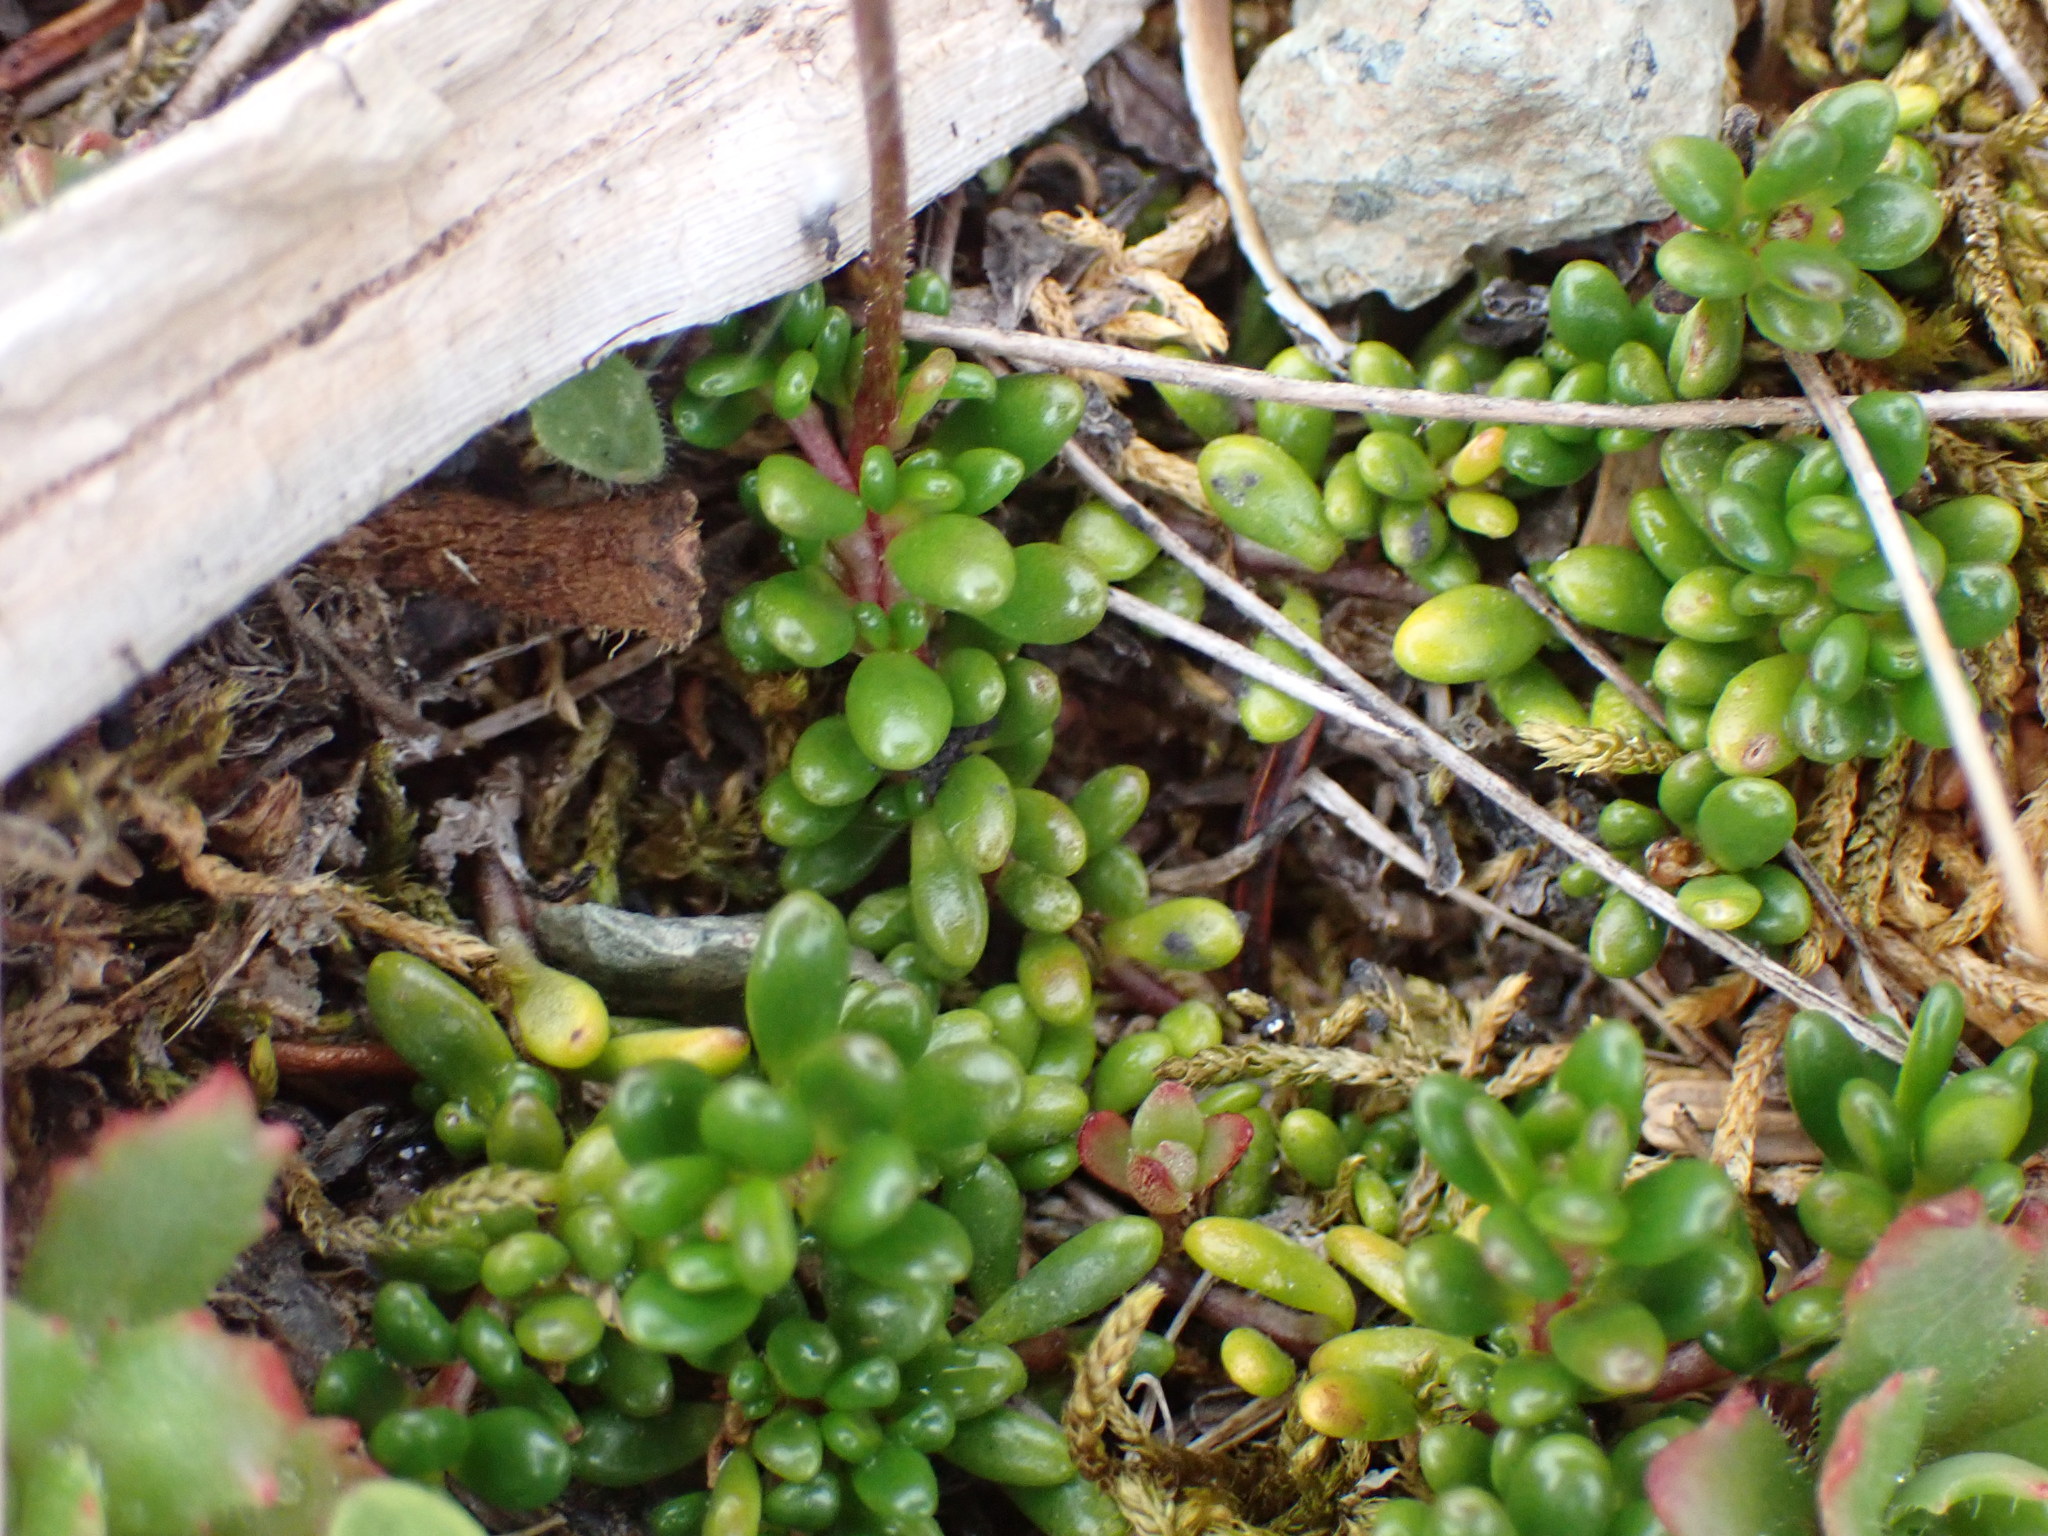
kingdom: Plantae
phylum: Tracheophyta
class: Magnoliopsida
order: Saxifragales
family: Saxifragaceae
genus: Micranthes
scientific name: Micranthes tolmiei
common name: Tolmie's saxifrage
